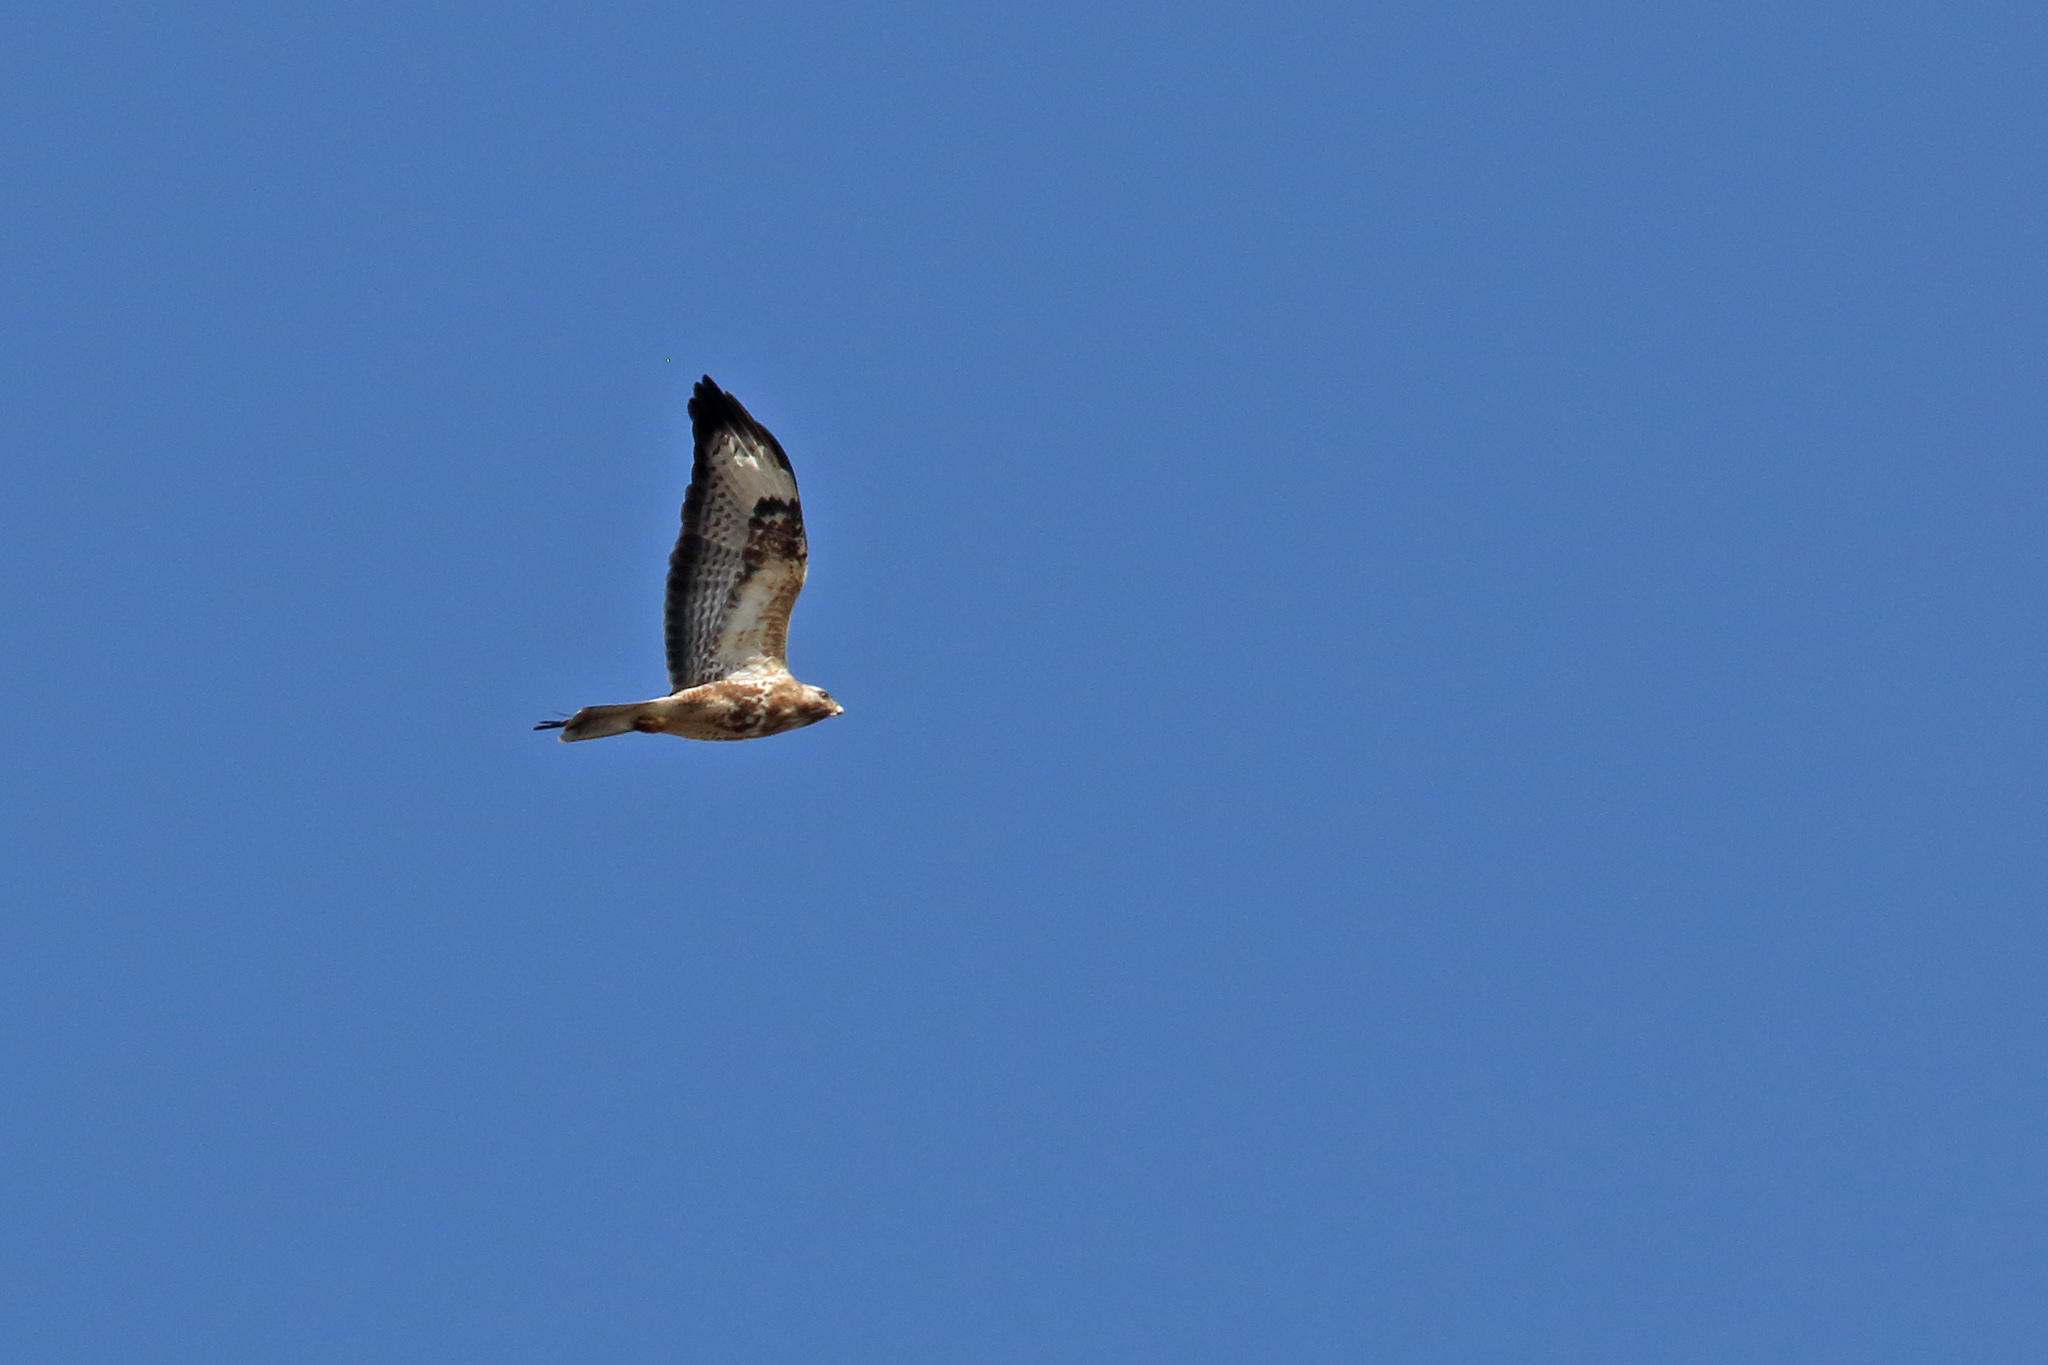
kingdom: Animalia
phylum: Chordata
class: Aves
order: Accipitriformes
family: Accipitridae
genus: Buteo
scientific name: Buteo buteo
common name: Common buzzard
